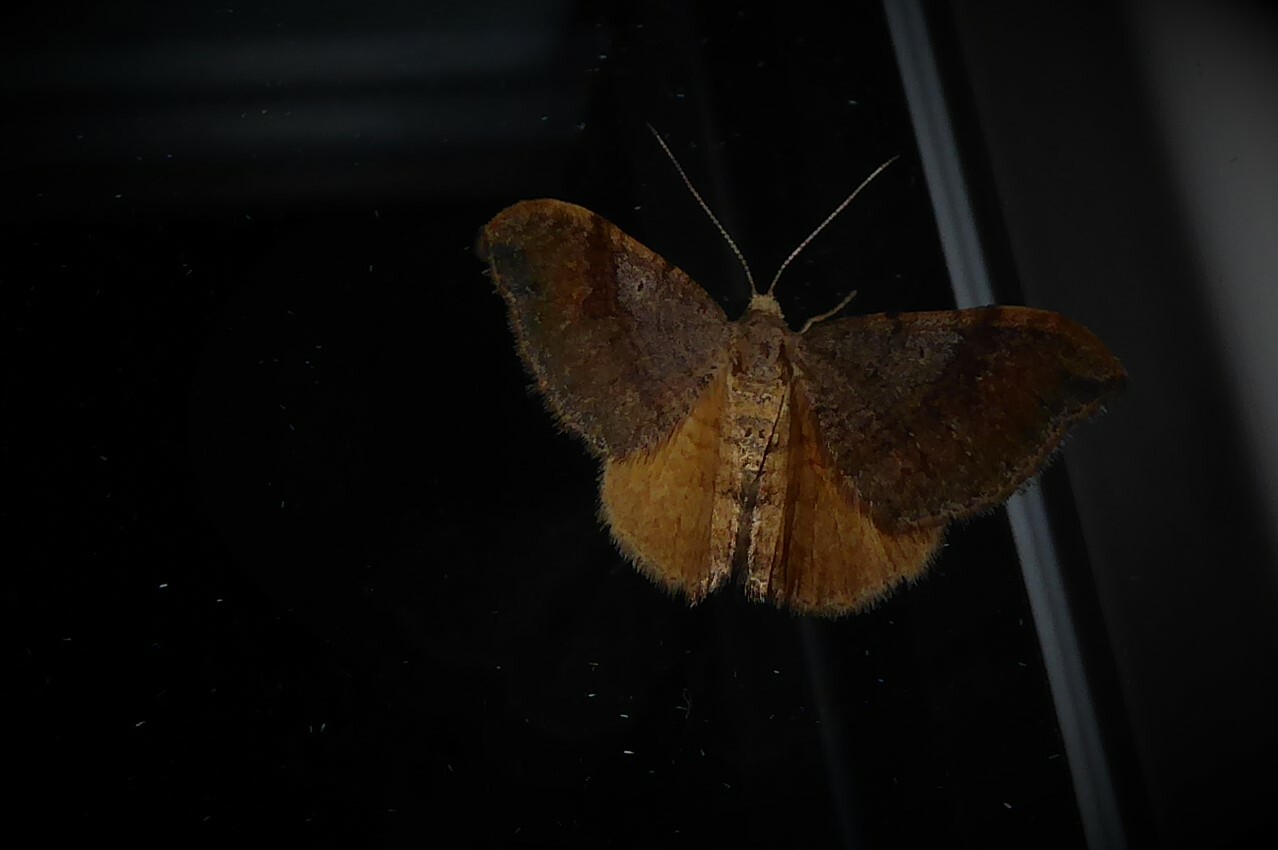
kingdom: Animalia
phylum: Arthropoda
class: Insecta
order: Lepidoptera
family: Geometridae
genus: Homodotis
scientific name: Homodotis megaspilata
